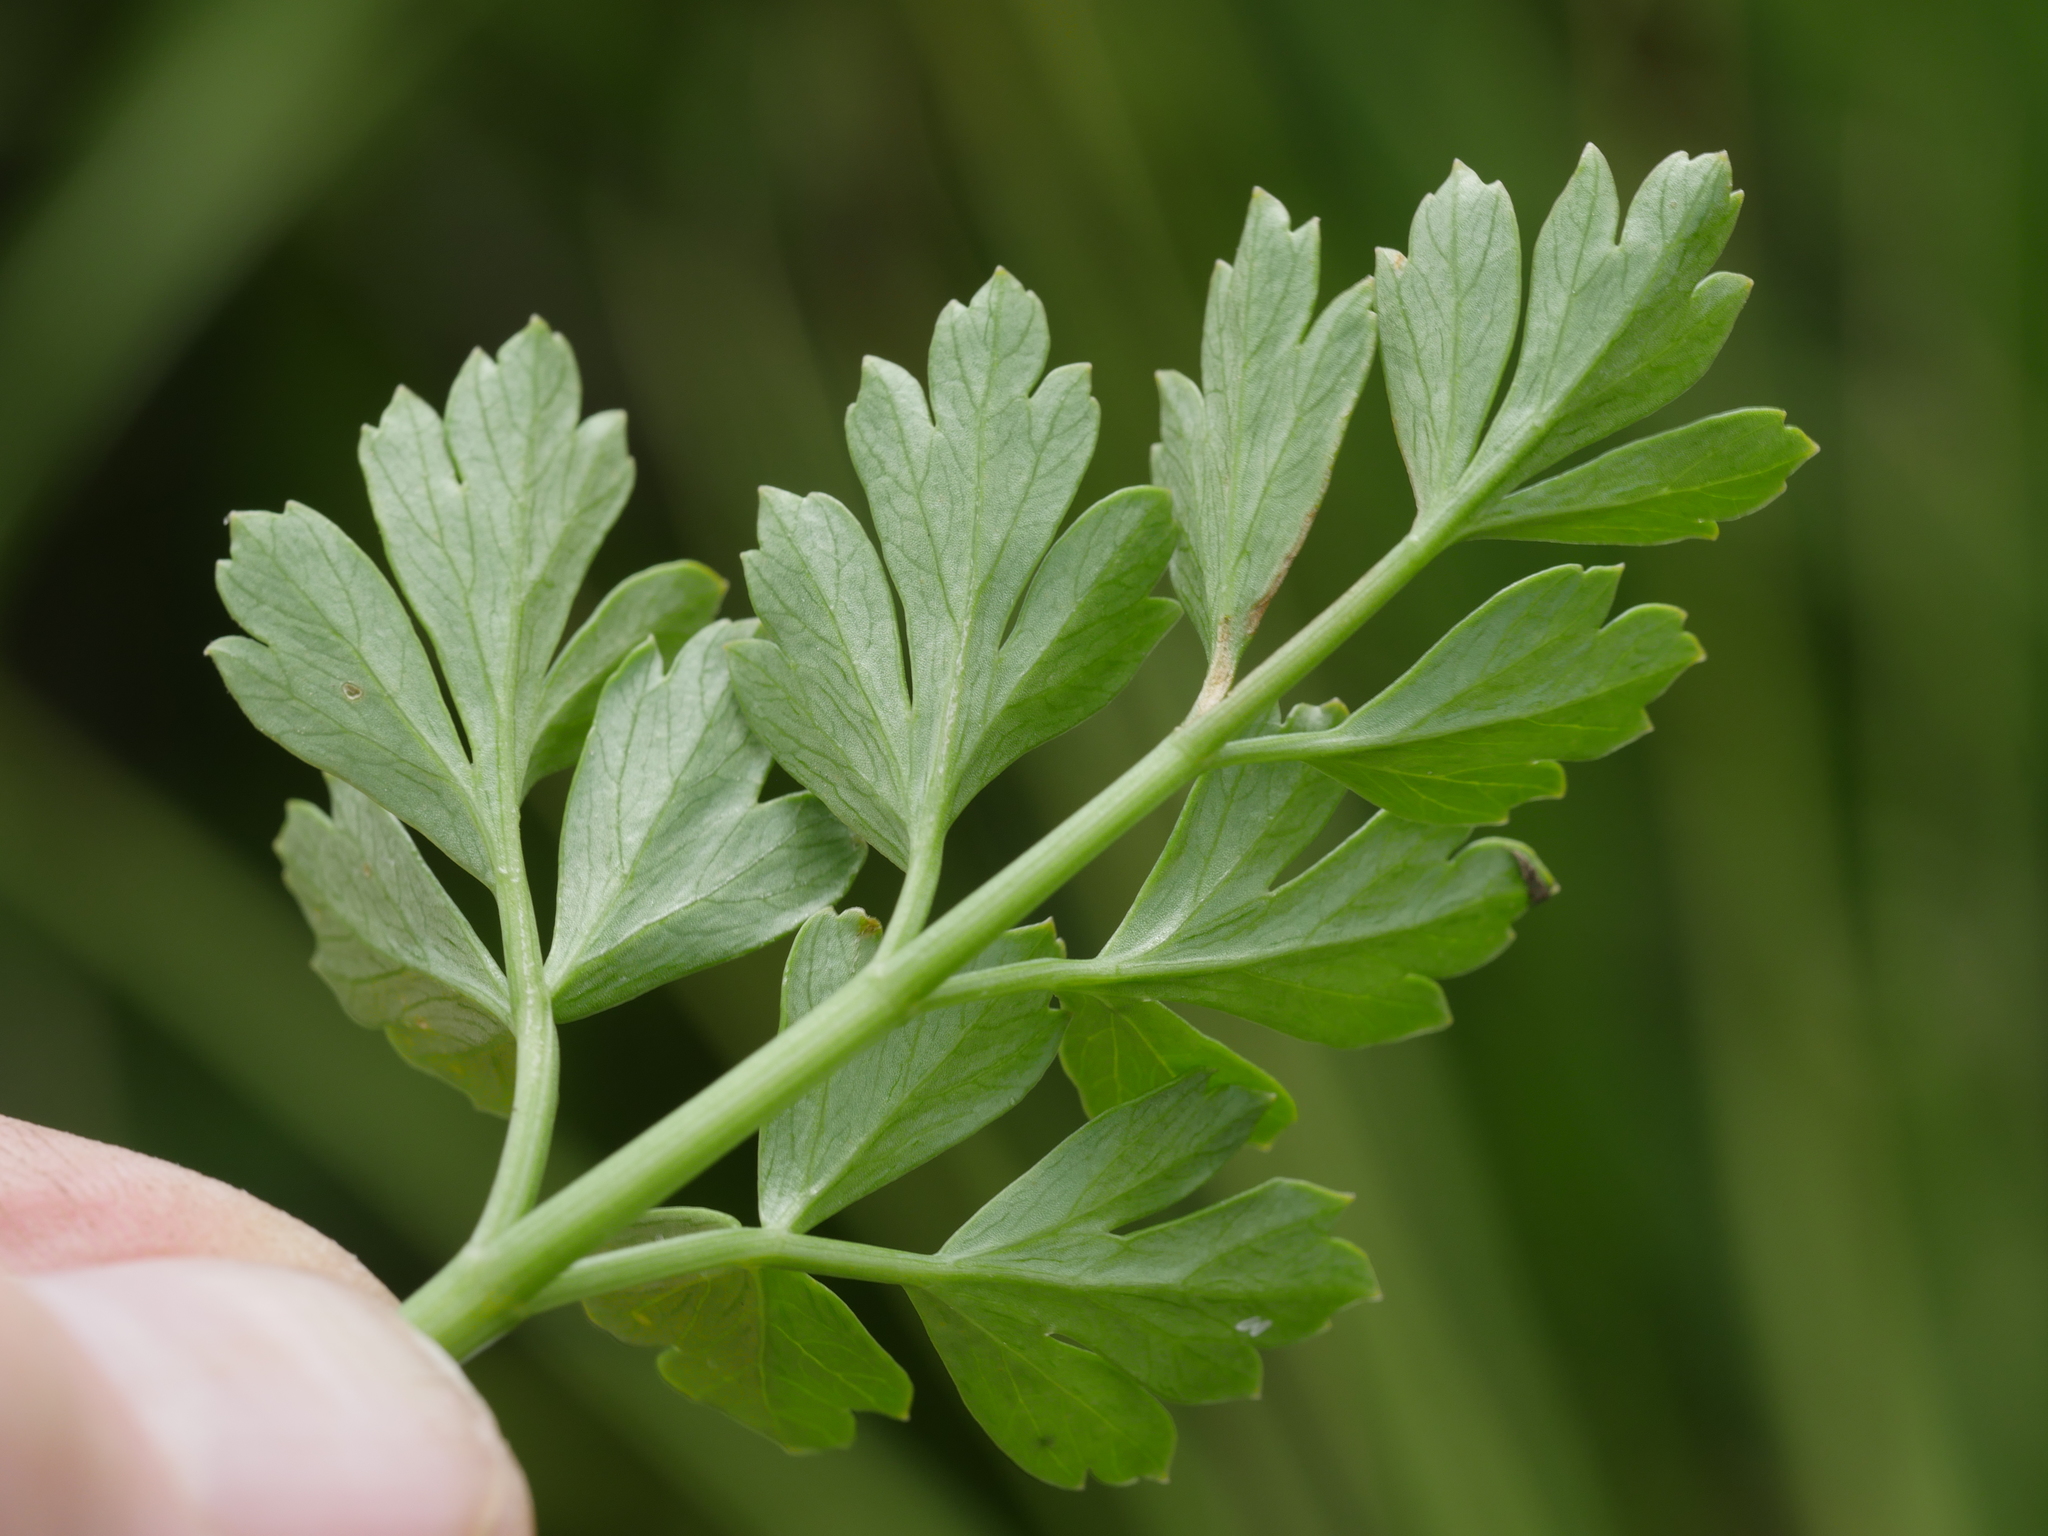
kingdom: Plantae
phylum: Tracheophyta
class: Magnoliopsida
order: Apiales
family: Apiaceae
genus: Apium
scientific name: Apium prostratum
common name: Prostrate marshwort
